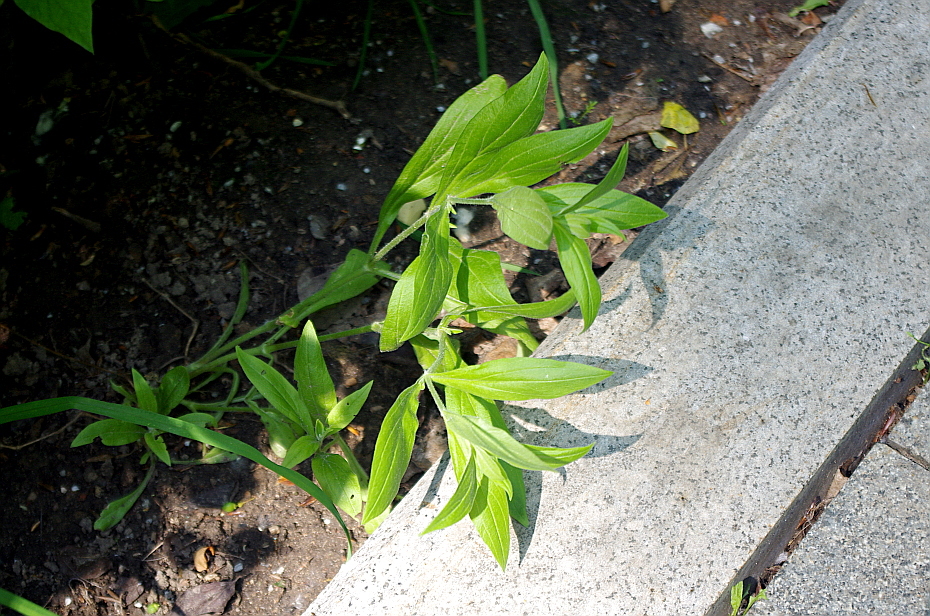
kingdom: Plantae
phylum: Tracheophyta
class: Magnoliopsida
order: Caryophyllales
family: Caryophyllaceae
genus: Silene
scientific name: Silene latifolia
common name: White campion
